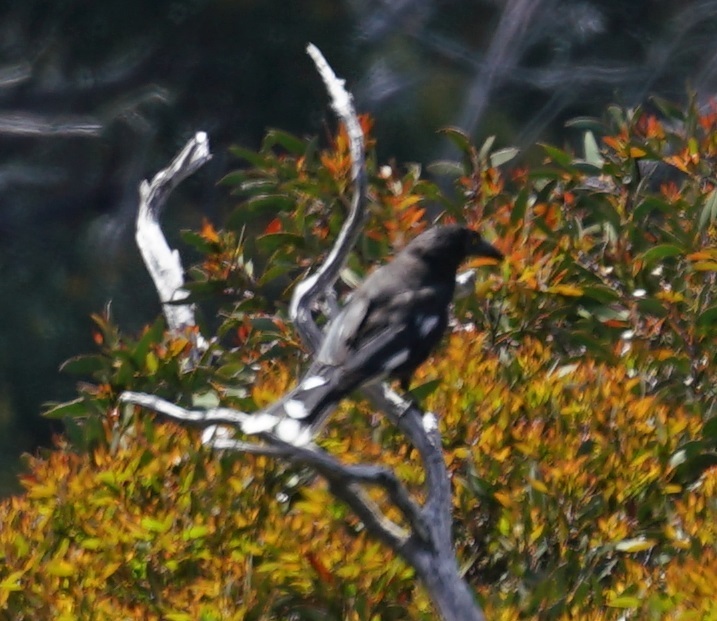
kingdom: Animalia
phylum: Chordata
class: Aves
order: Passeriformes
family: Cracticidae
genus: Strepera
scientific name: Strepera graculina
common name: Pied currawong
